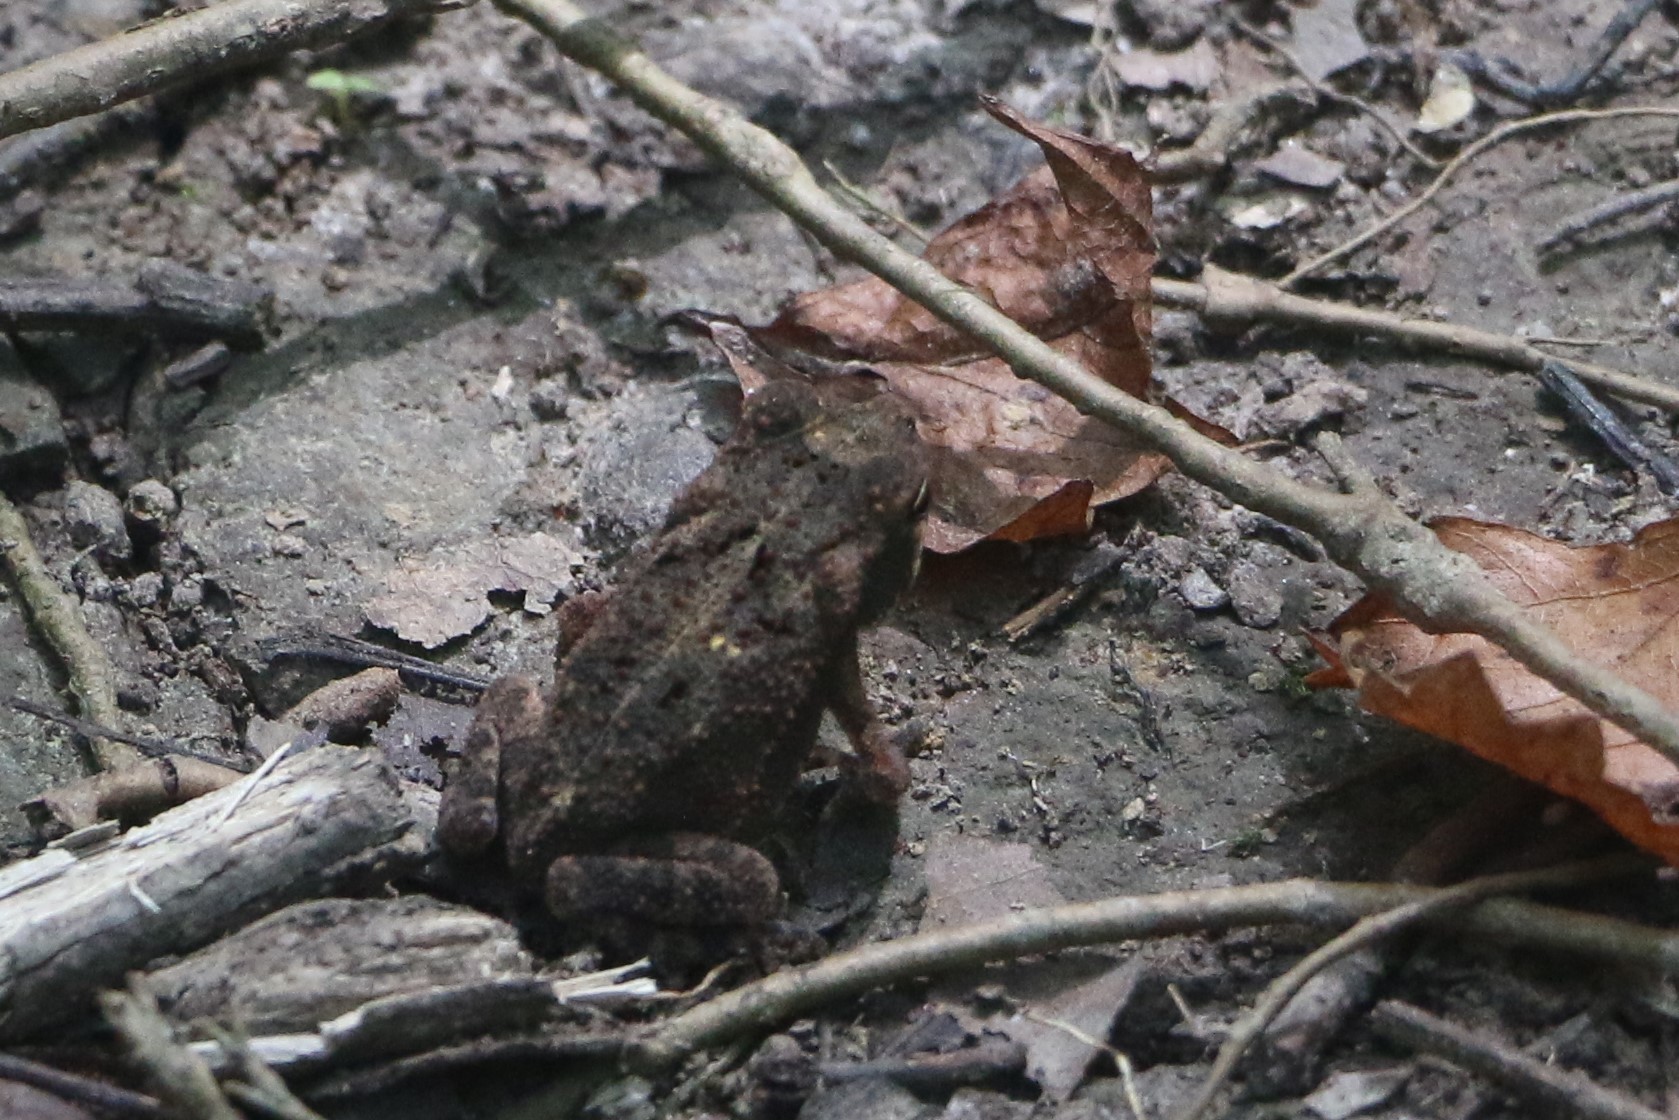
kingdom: Animalia
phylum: Chordata
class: Amphibia
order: Anura
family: Bufonidae
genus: Incilius
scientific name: Incilius nebulifer
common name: Gulf coast toad
